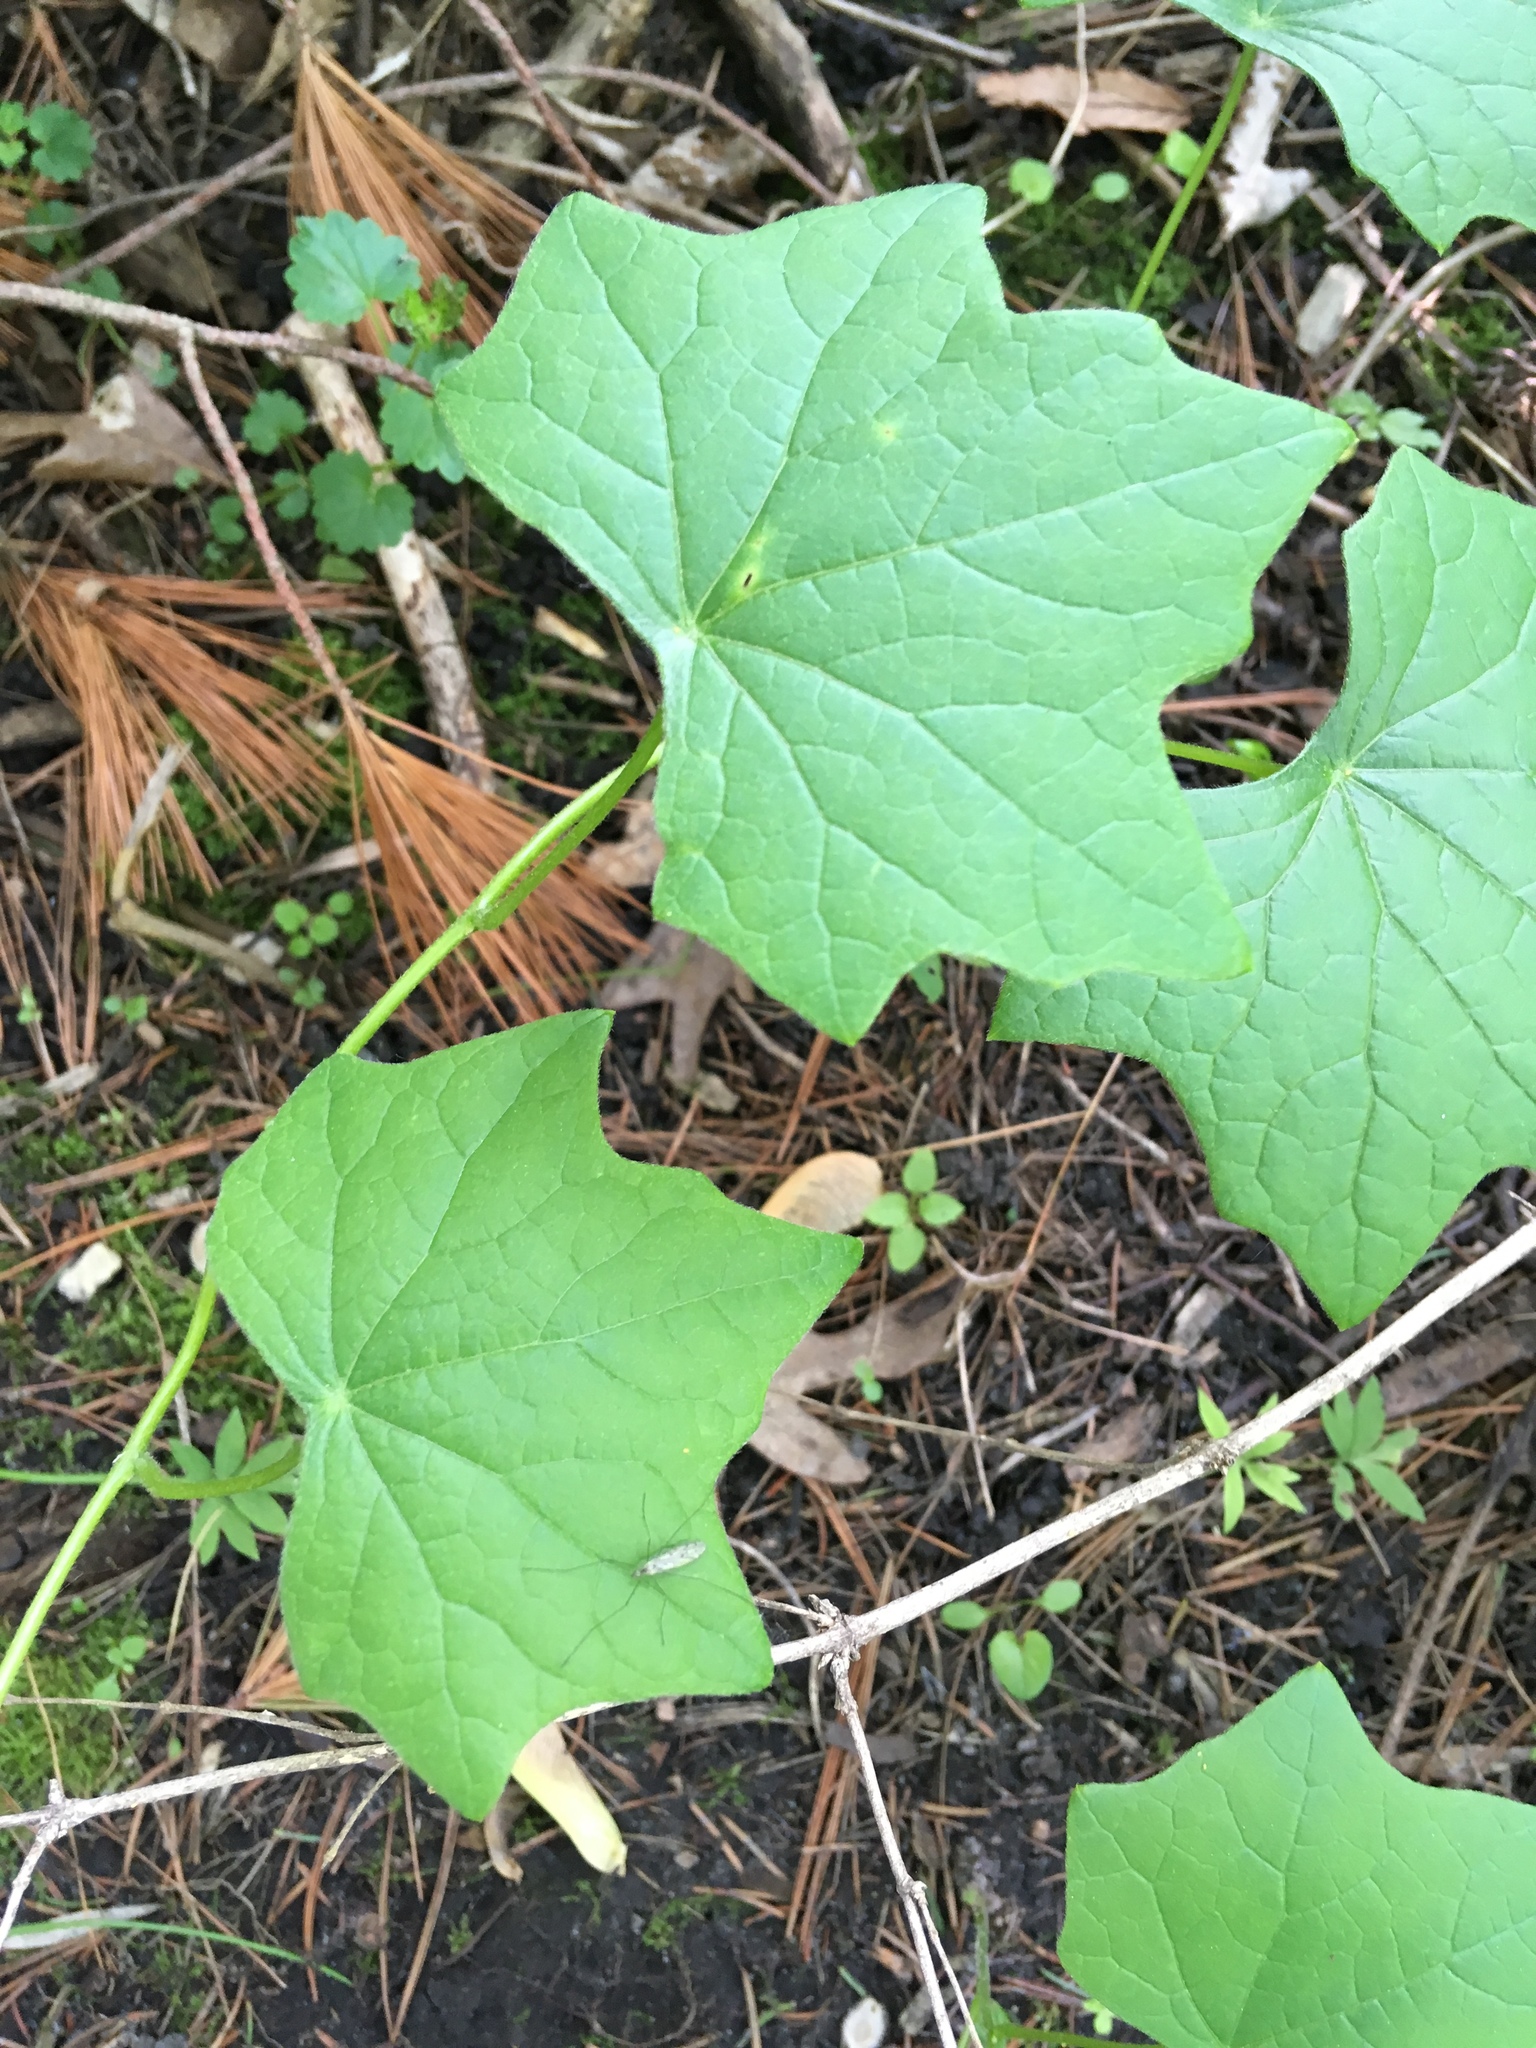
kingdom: Plantae
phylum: Tracheophyta
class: Magnoliopsida
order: Ranunculales
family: Menispermaceae
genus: Menispermum
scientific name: Menispermum canadense
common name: Moonseed
